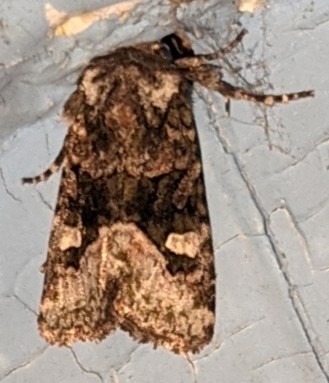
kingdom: Animalia
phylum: Arthropoda
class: Insecta
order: Lepidoptera
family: Noctuidae
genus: Lacinipolia
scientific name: Lacinipolia olivacea
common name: Olive arches moth
